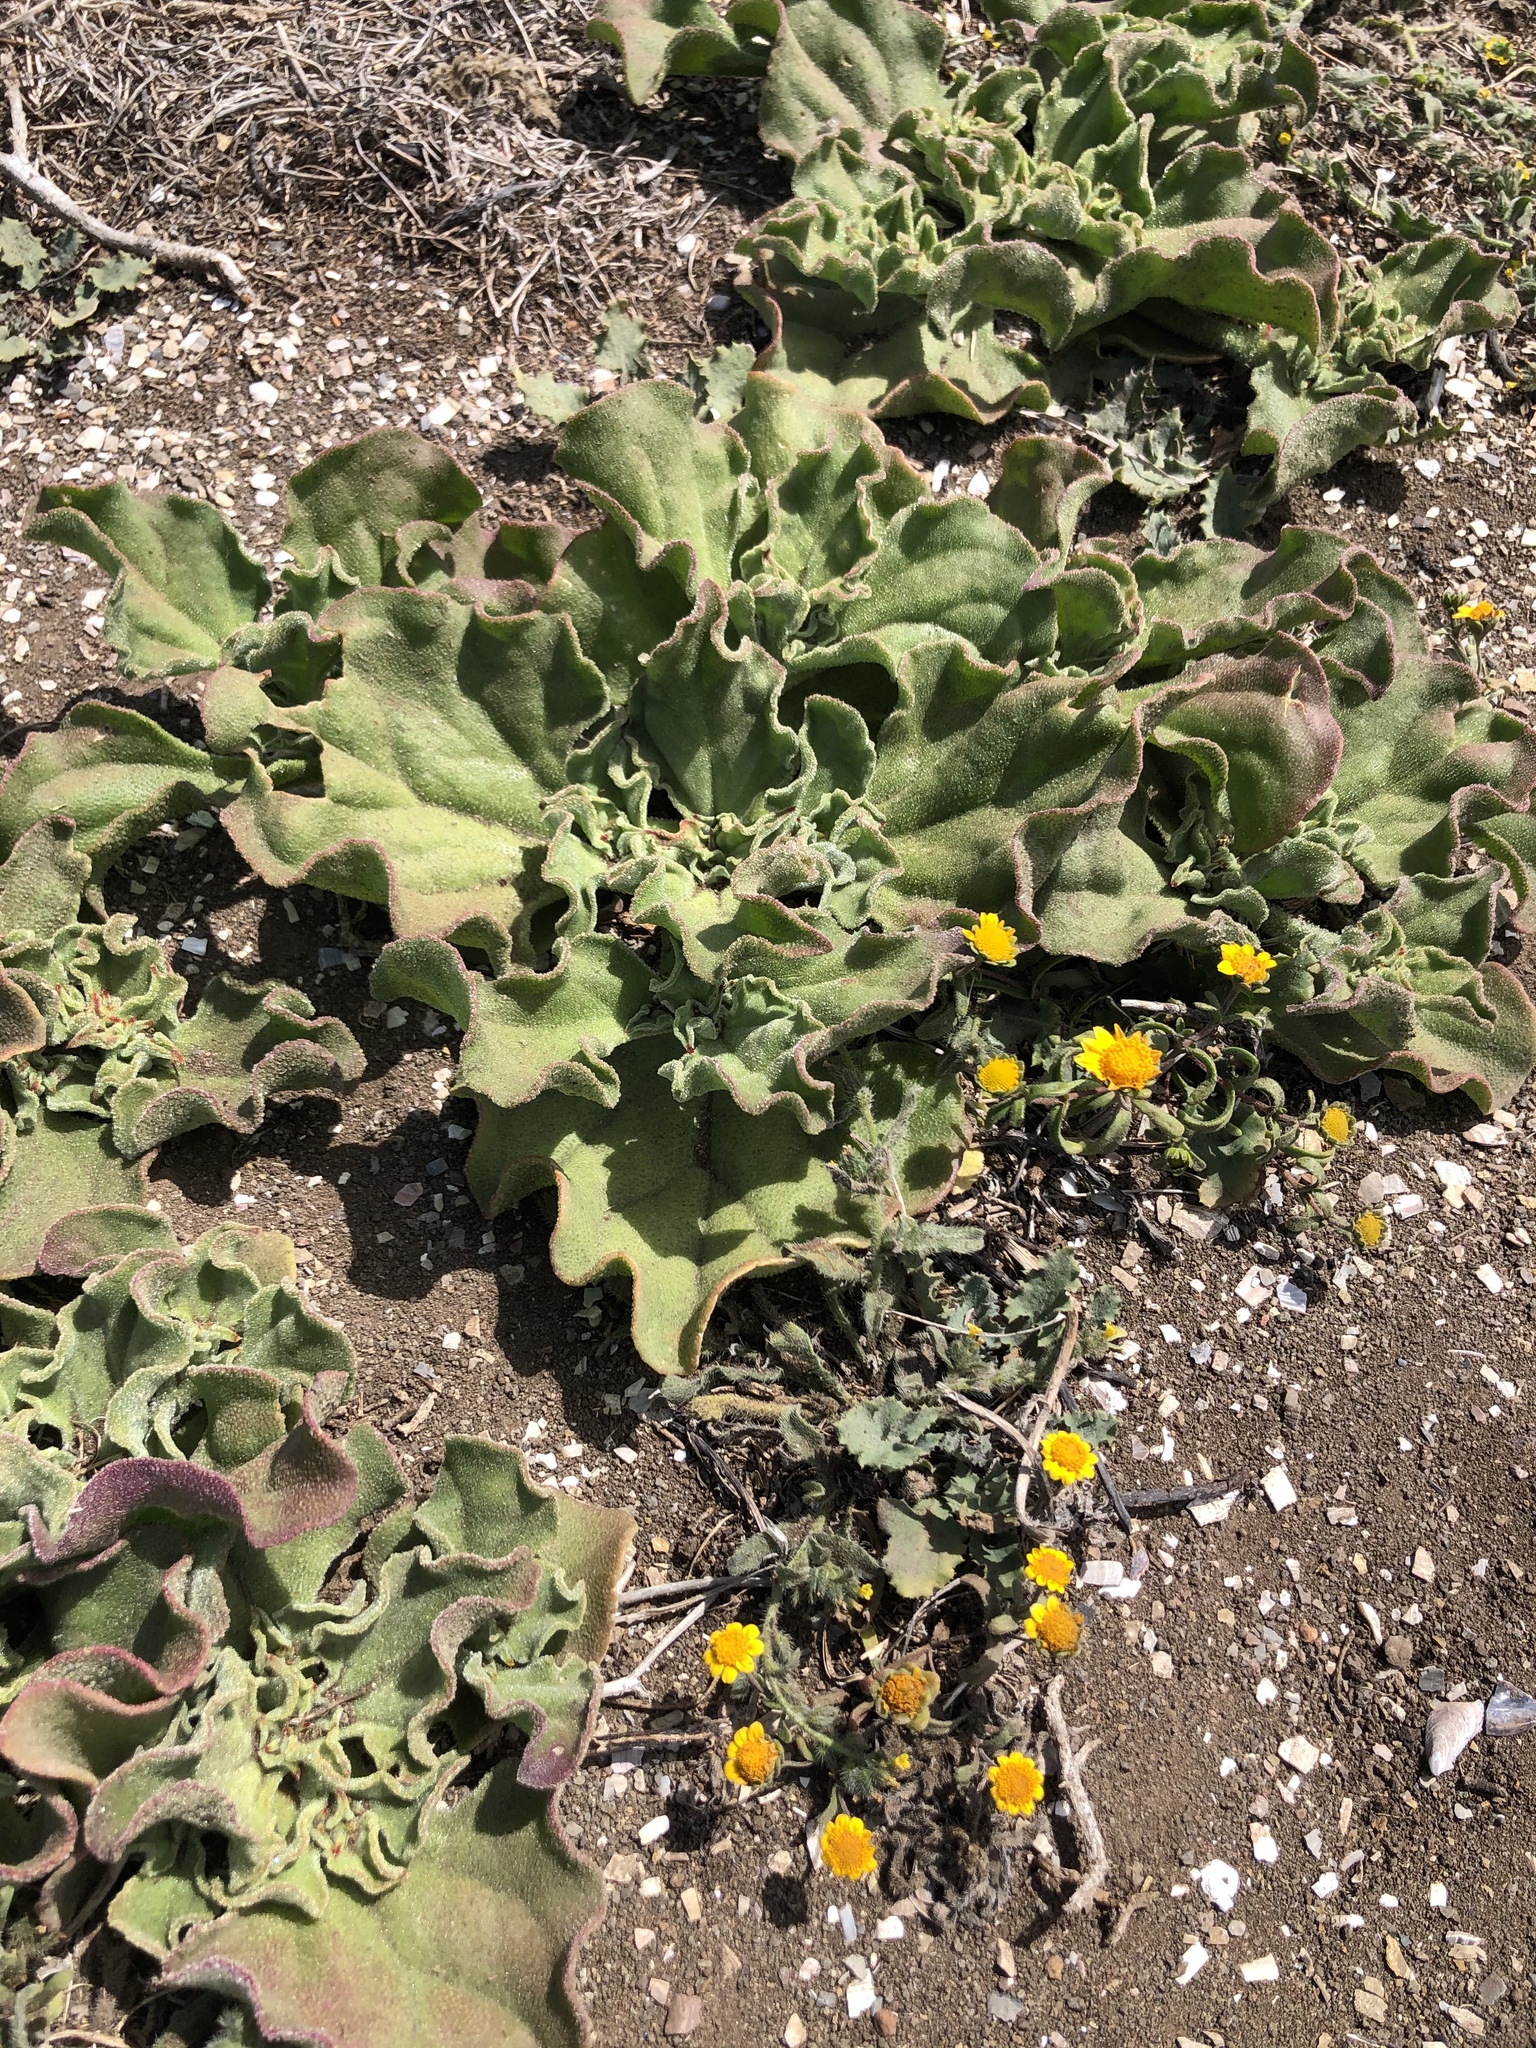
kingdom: Plantae
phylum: Tracheophyta
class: Magnoliopsida
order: Caryophyllales
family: Aizoaceae
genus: Mesembryanthemum
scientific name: Mesembryanthemum crystallinum
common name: Common iceplant
